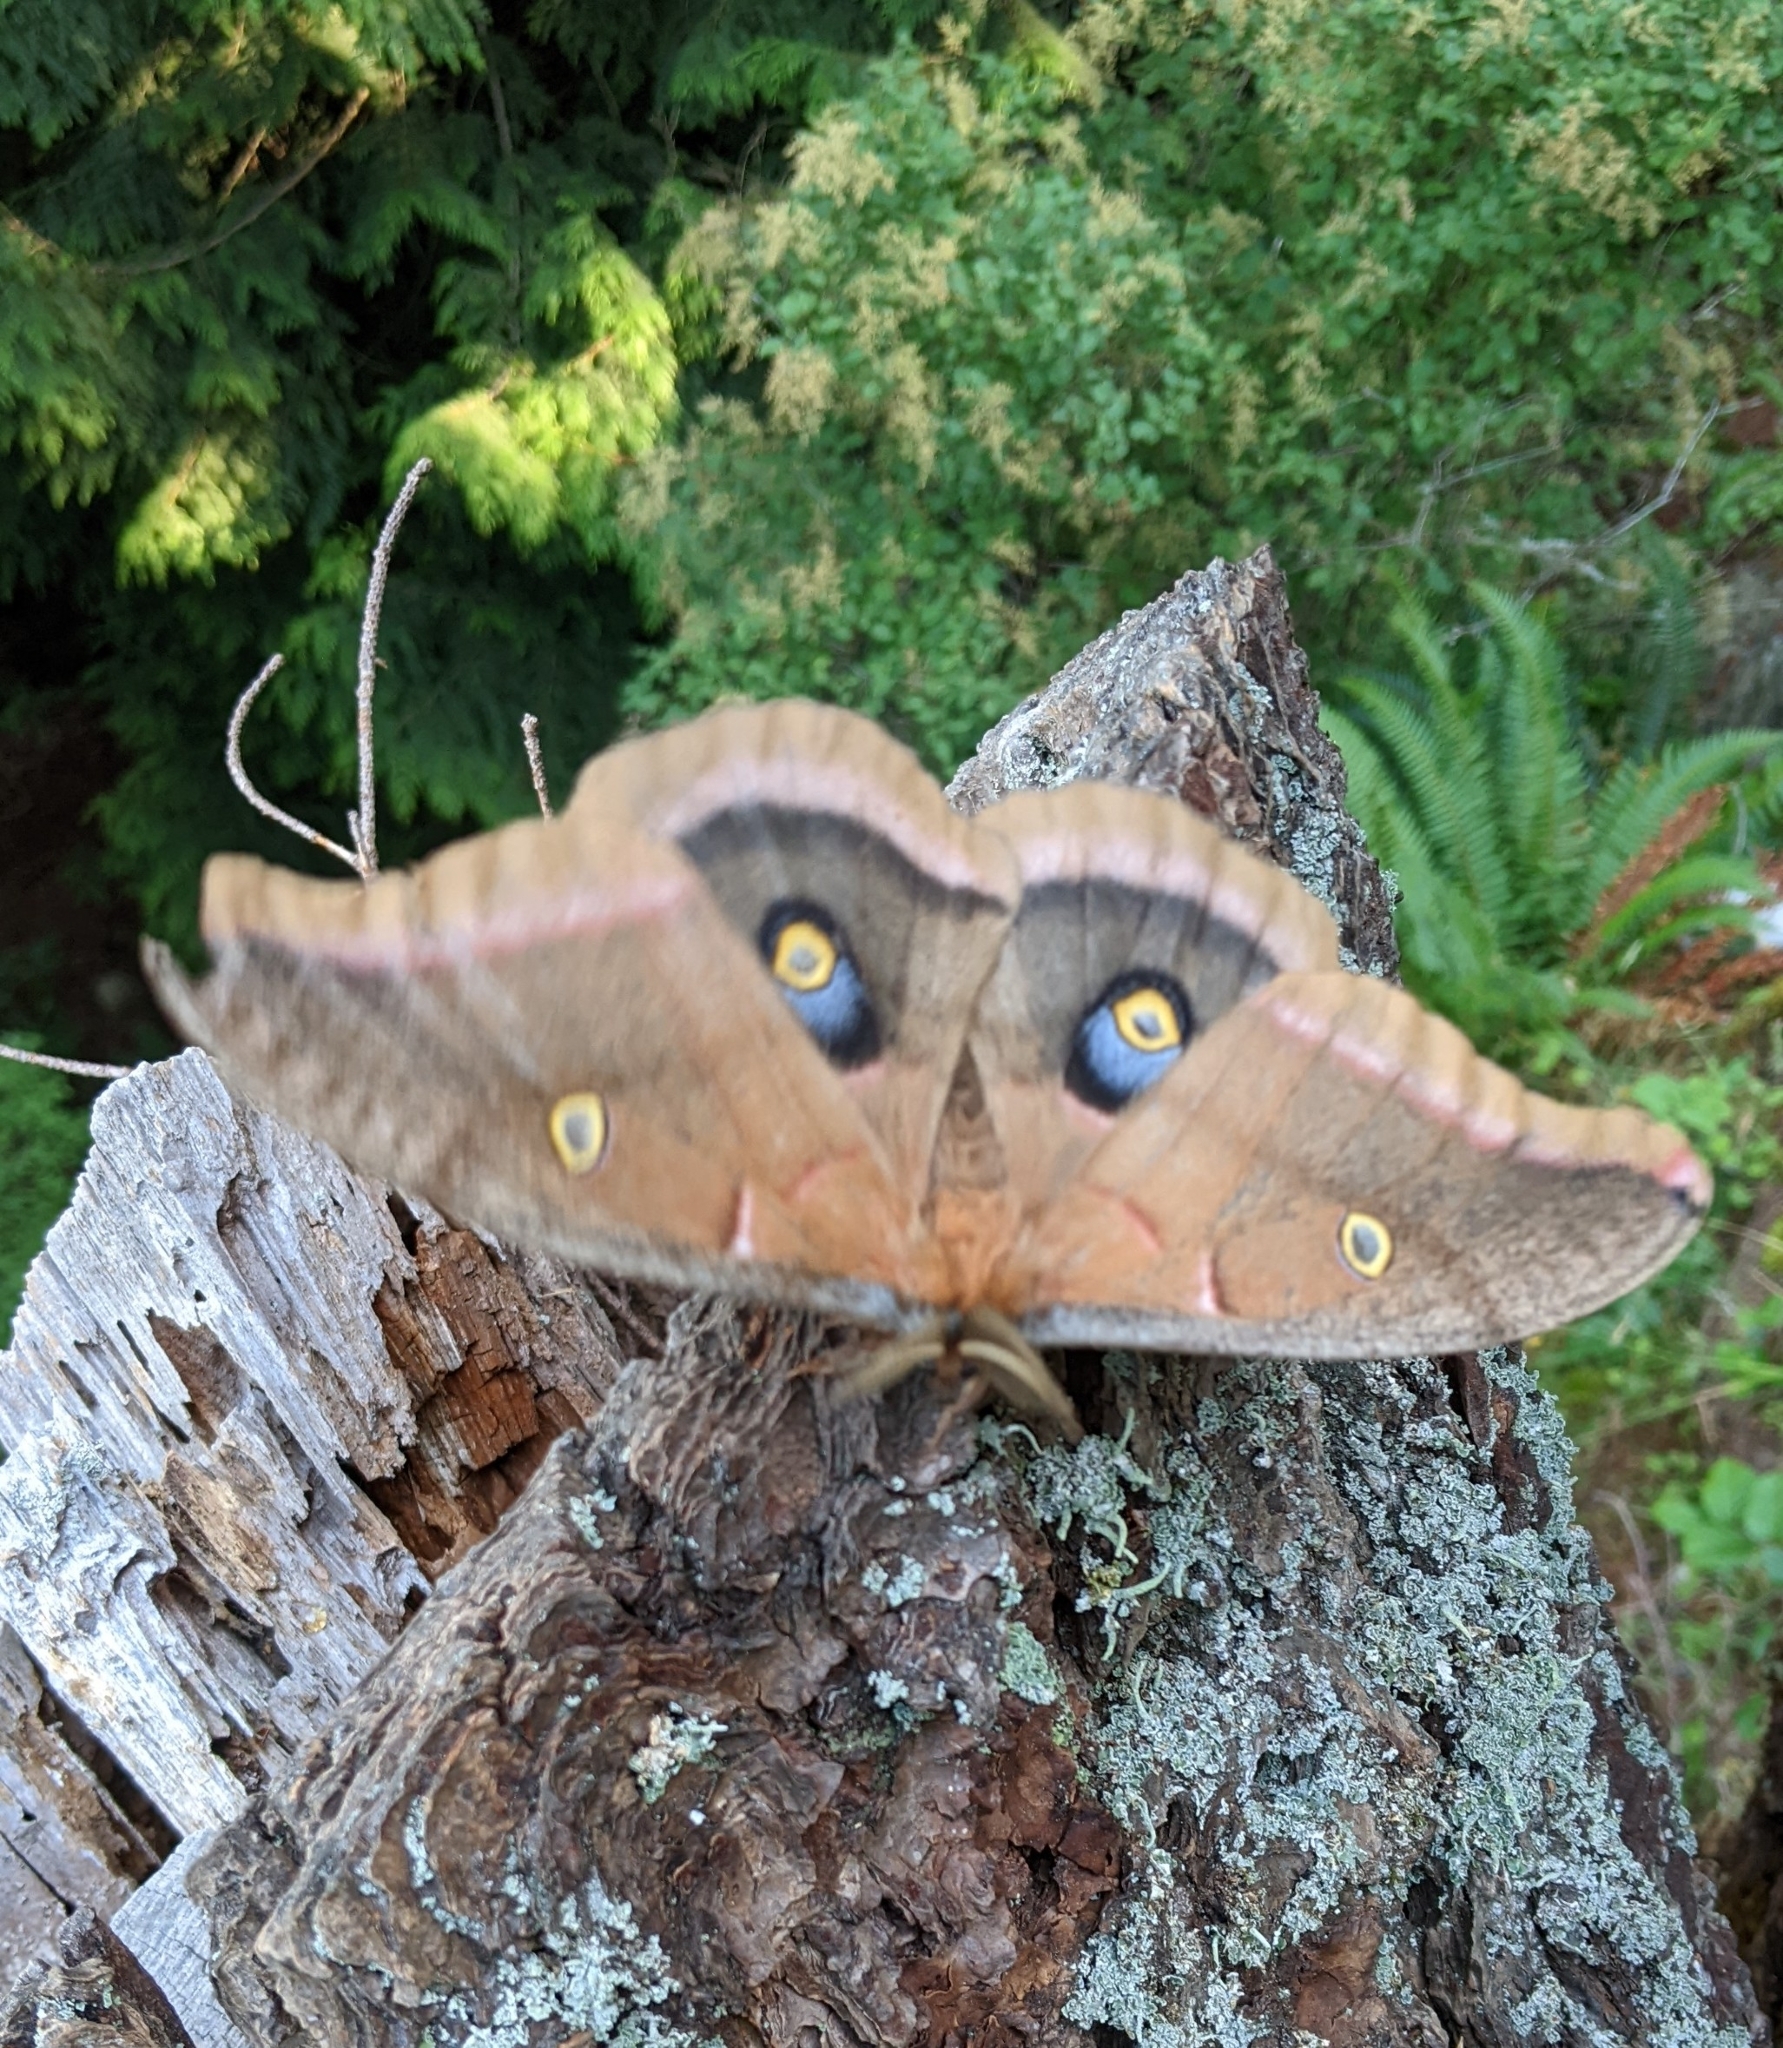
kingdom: Animalia
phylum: Arthropoda
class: Insecta
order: Lepidoptera
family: Saturniidae
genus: Antheraea
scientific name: Antheraea polyphemus
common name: Polyphemus moth
